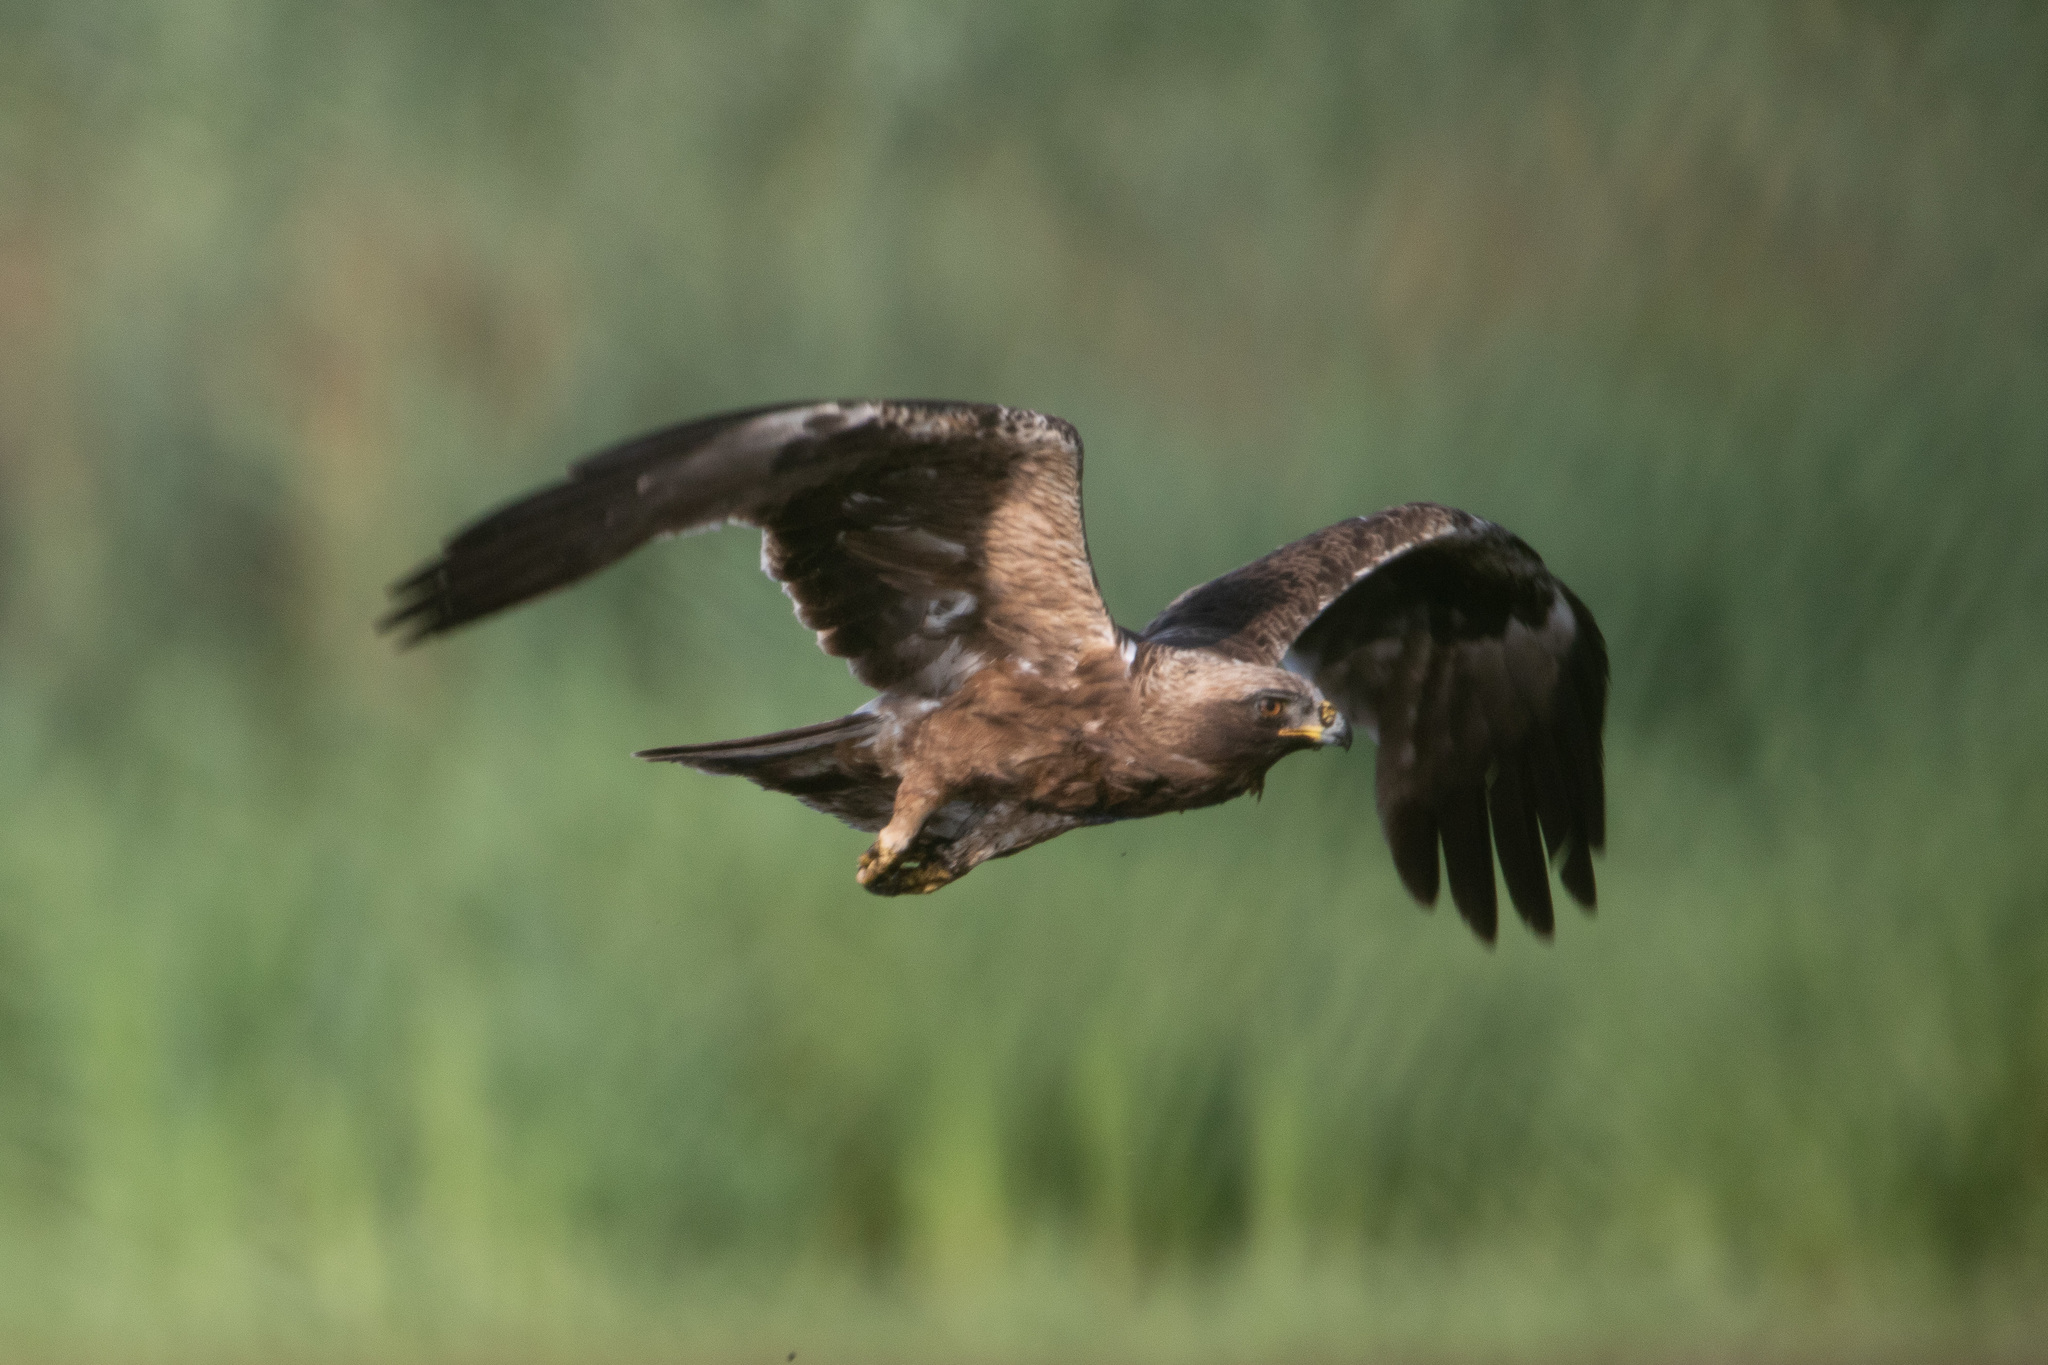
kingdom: Animalia
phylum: Chordata
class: Aves
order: Accipitriformes
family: Accipitridae
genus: Hieraaetus
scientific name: Hieraaetus pennatus
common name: Booted eagle
